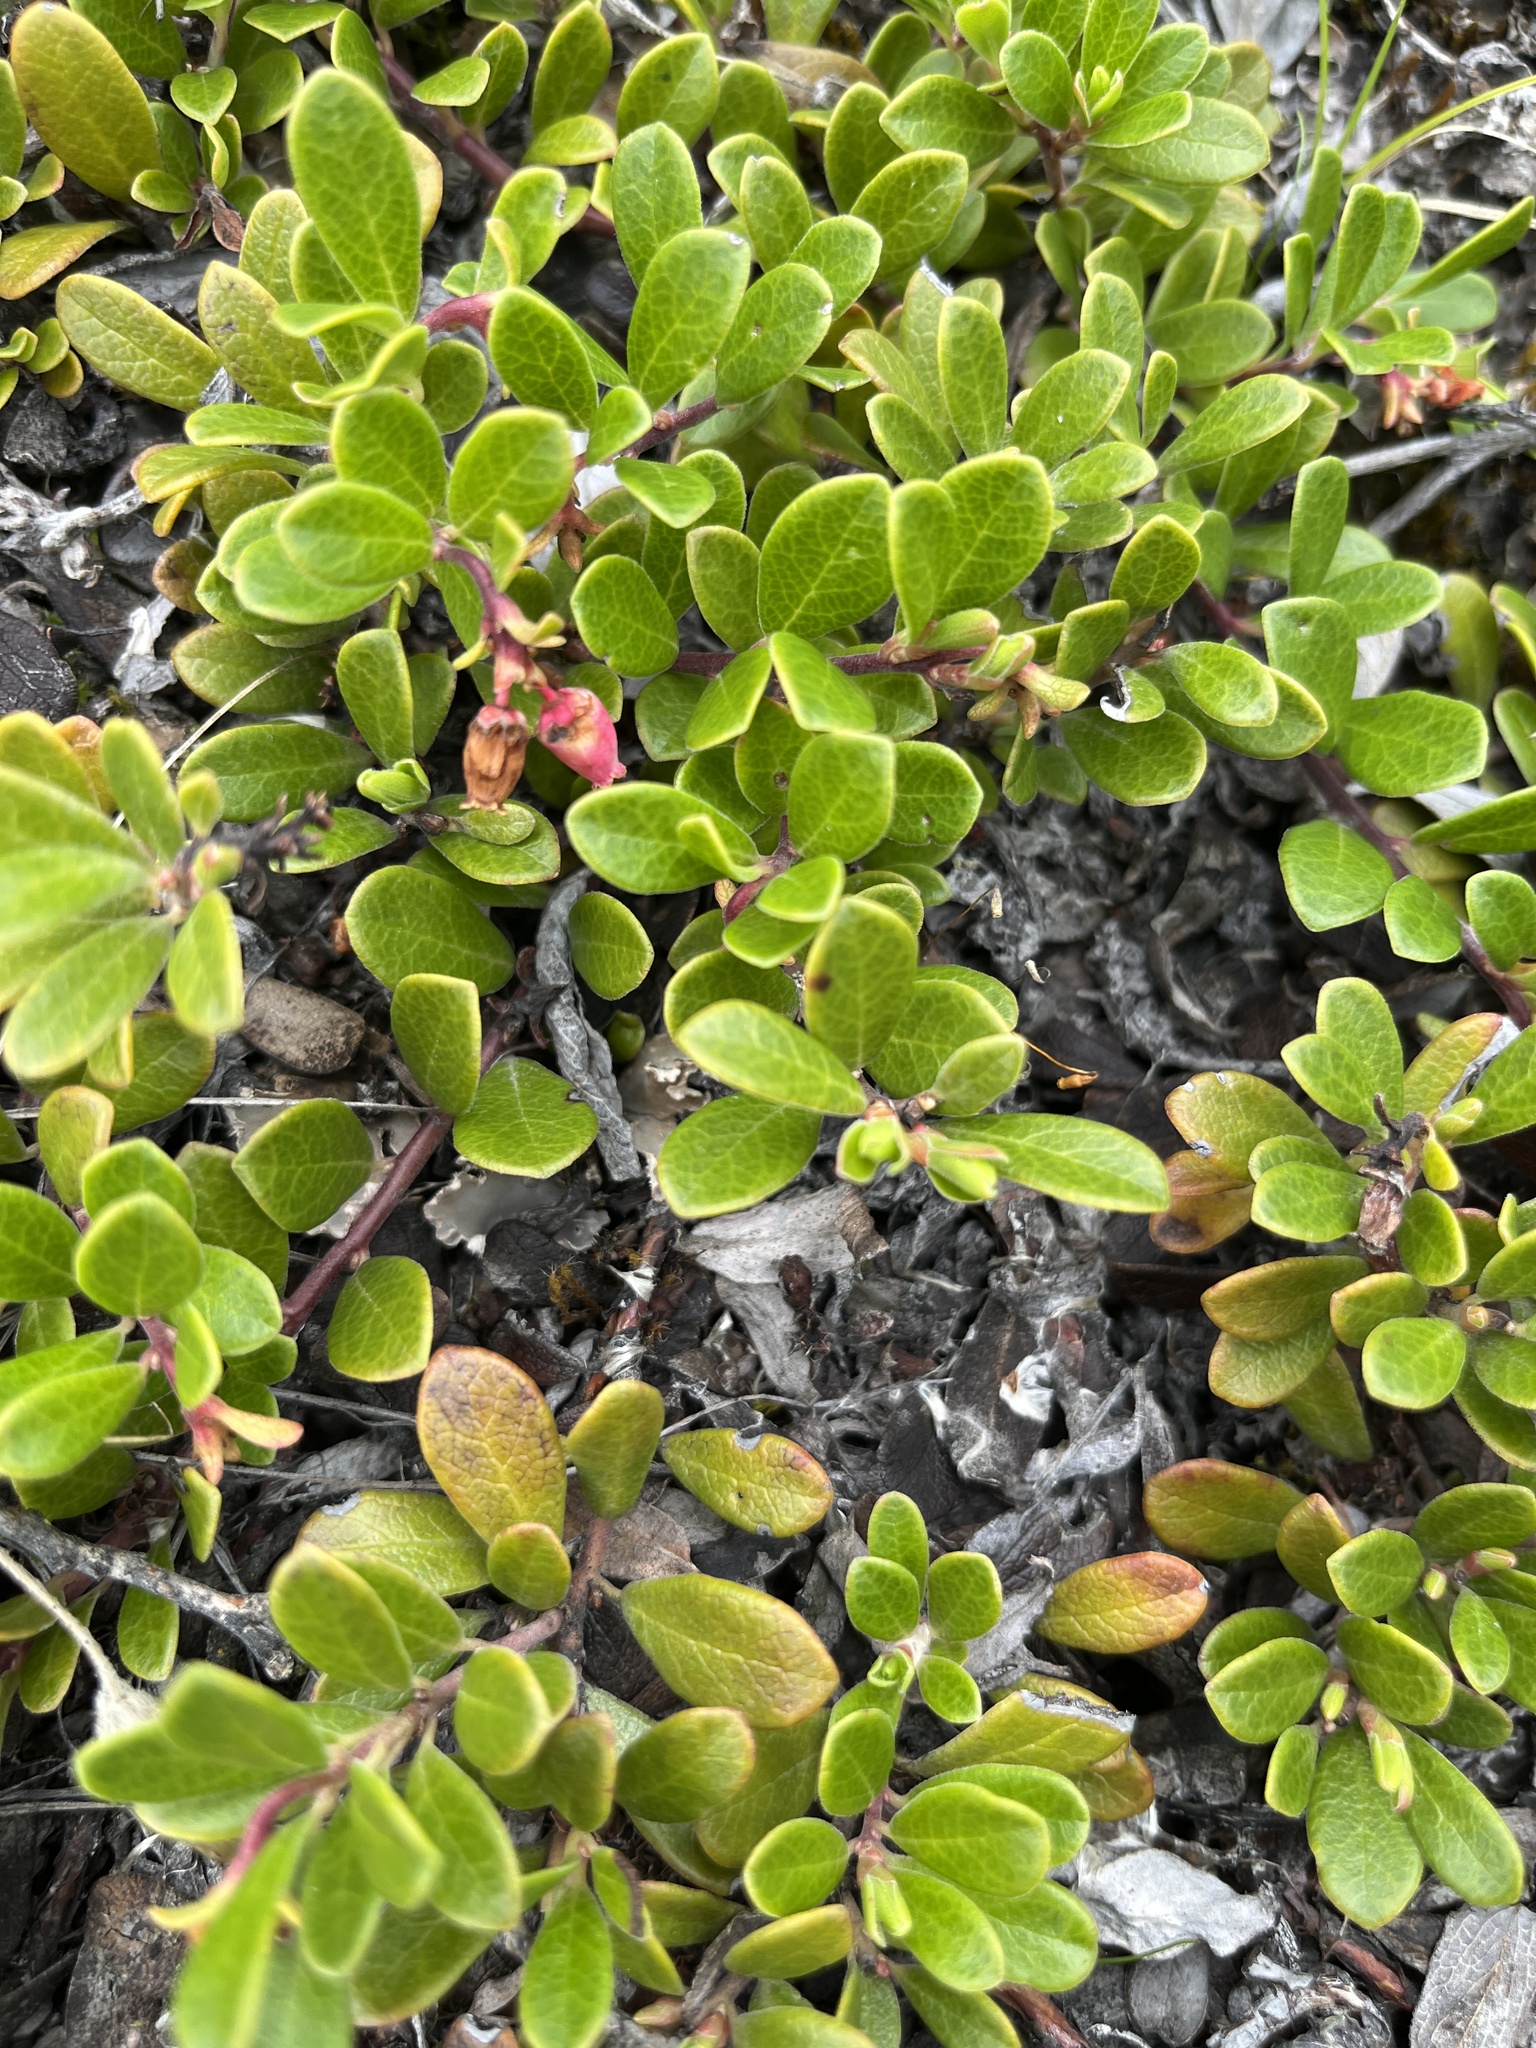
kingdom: Plantae
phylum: Tracheophyta
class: Magnoliopsida
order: Ericales
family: Ericaceae
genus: Arctostaphylos
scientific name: Arctostaphylos uva-ursi
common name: Bearberry
